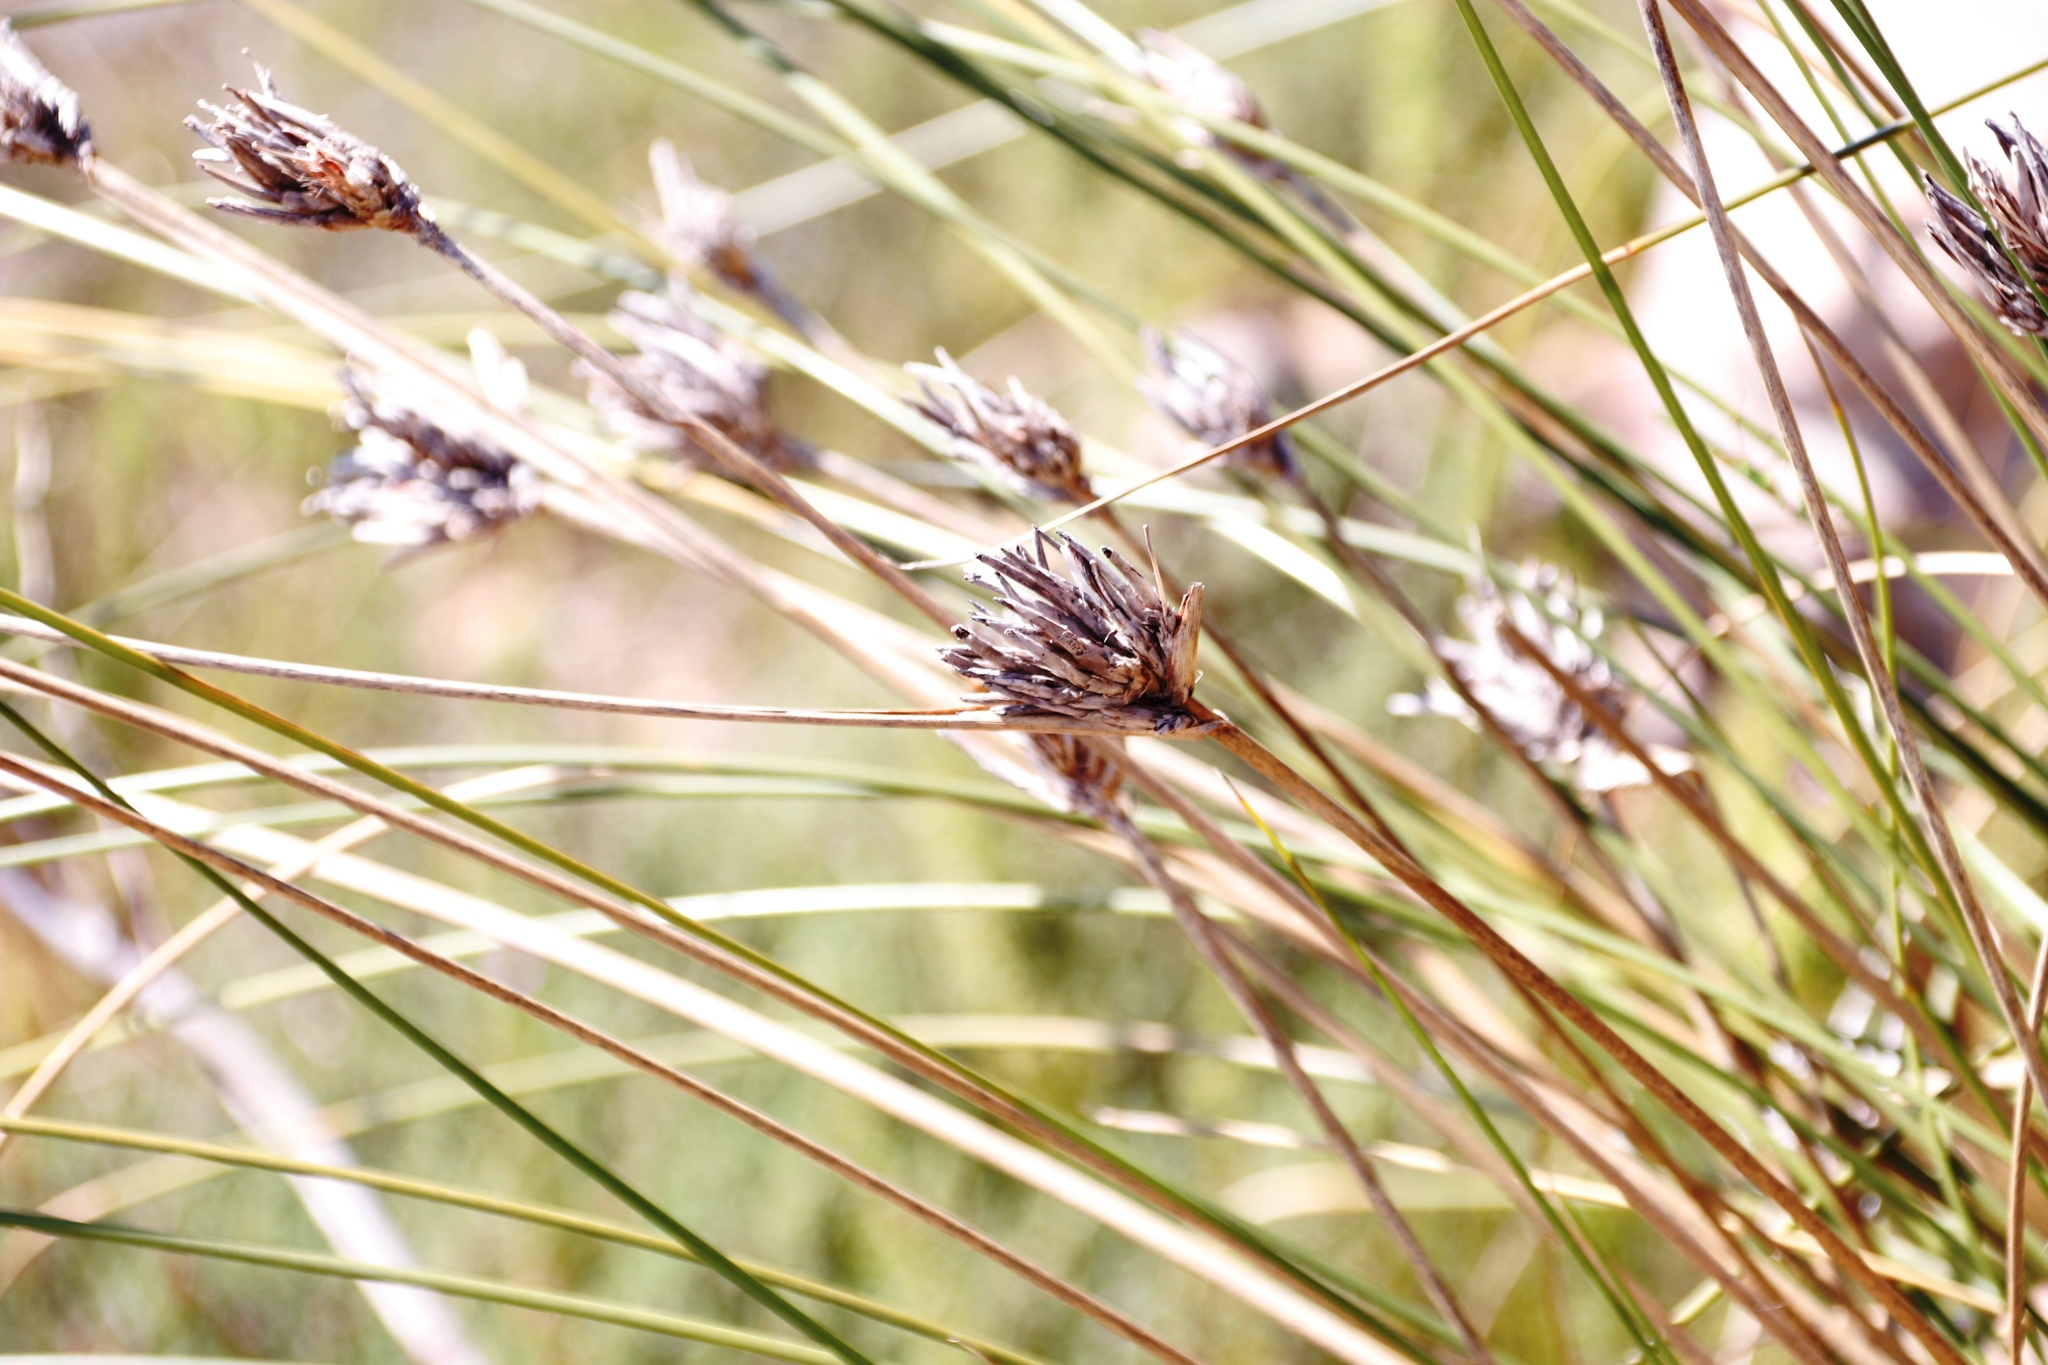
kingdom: Plantae
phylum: Tracheophyta
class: Liliopsida
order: Asparagales
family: Iridaceae
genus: Bobartia
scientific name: Bobartia indica
